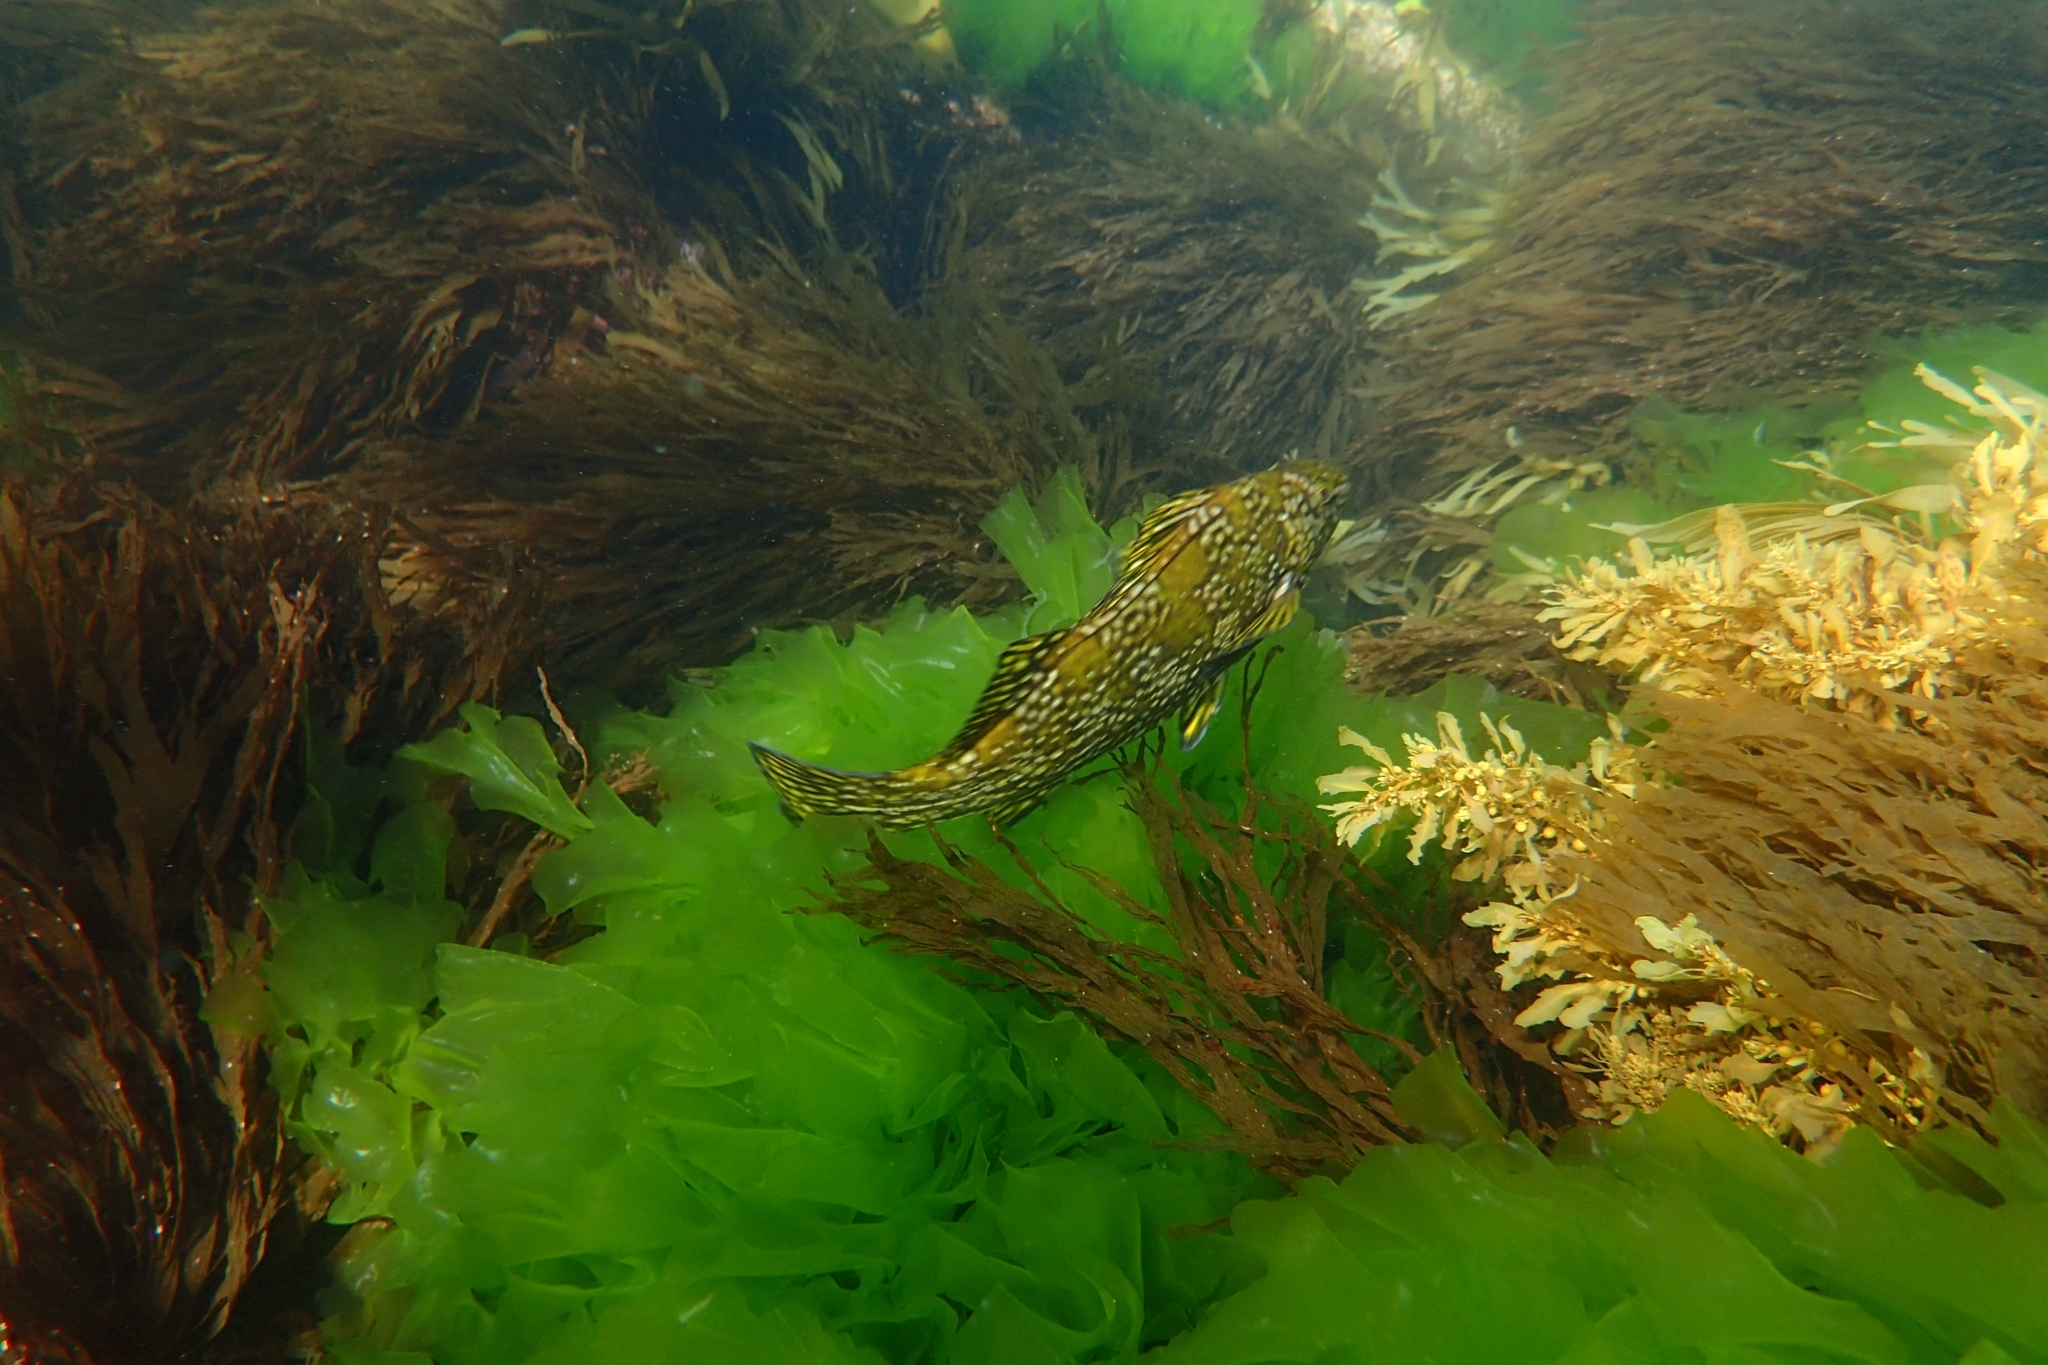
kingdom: Animalia
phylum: Chordata
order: Perciformes
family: Aplodactylidae
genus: Aplodactylus
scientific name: Aplodactylus arctidens
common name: Marblefish
